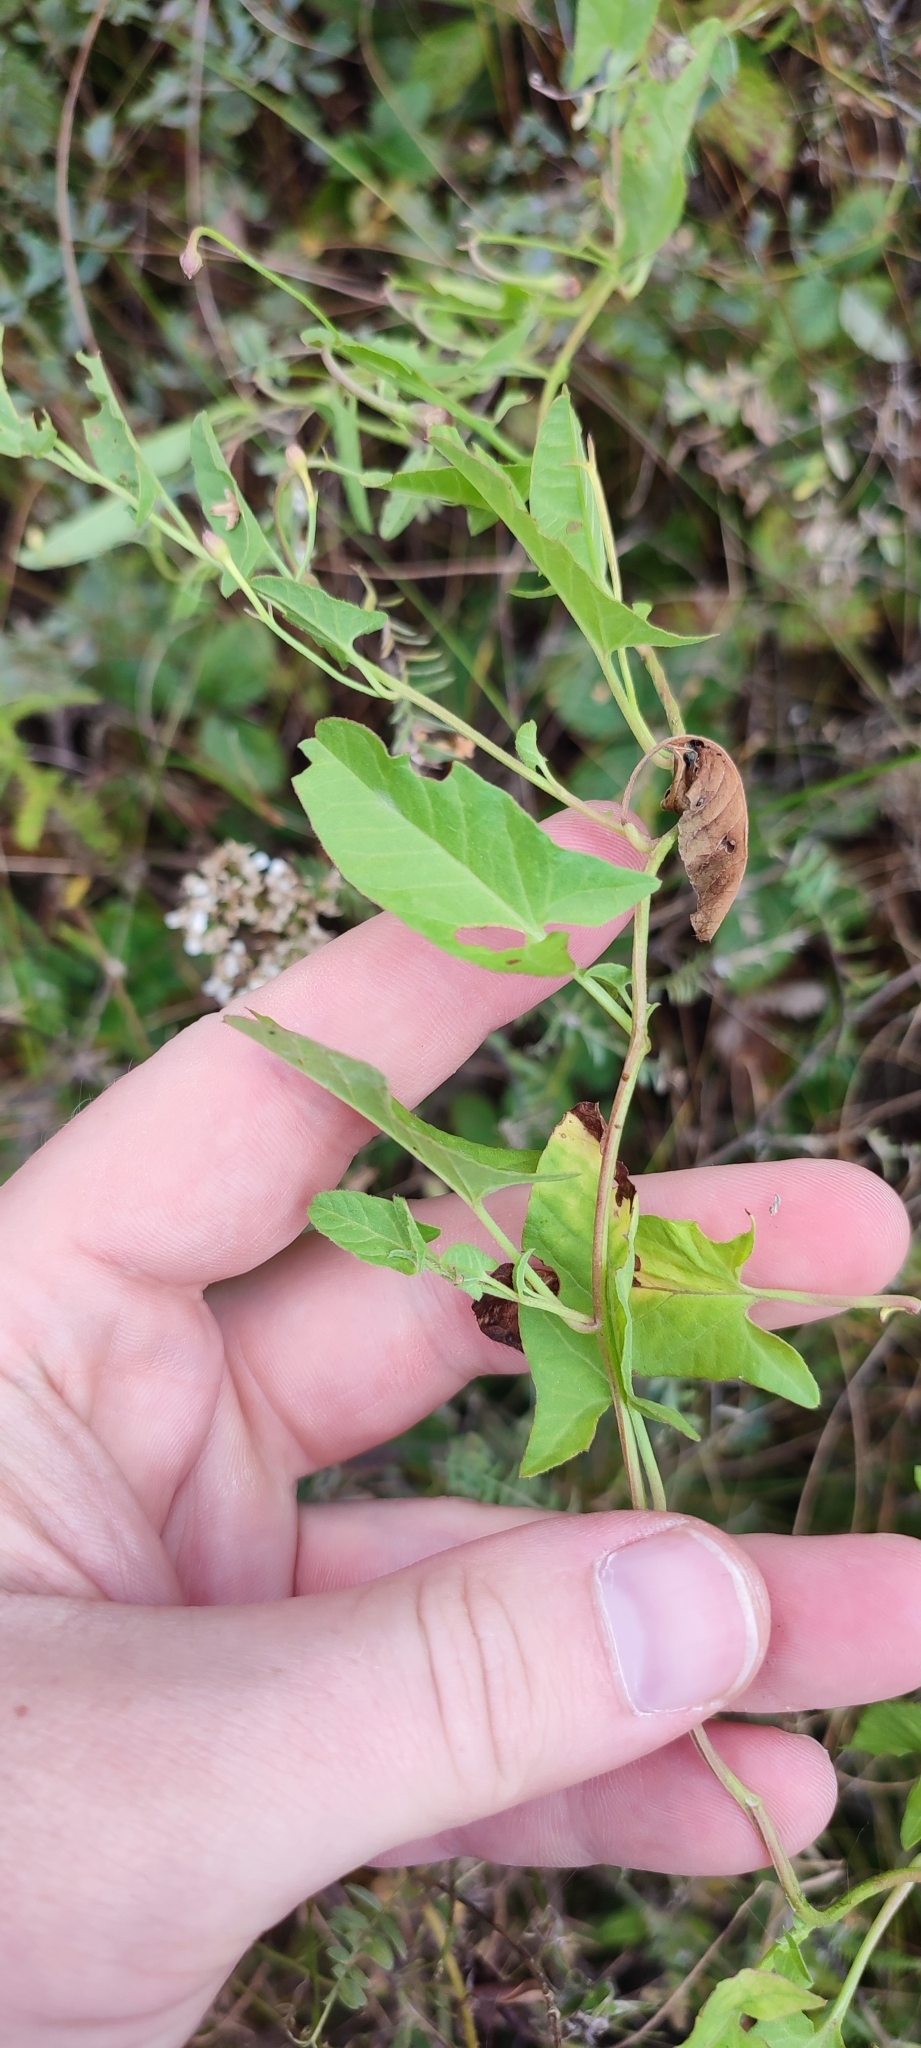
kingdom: Plantae
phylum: Tracheophyta
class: Magnoliopsida
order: Solanales
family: Convolvulaceae
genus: Convolvulus
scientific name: Convolvulus arvensis
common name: Field bindweed
